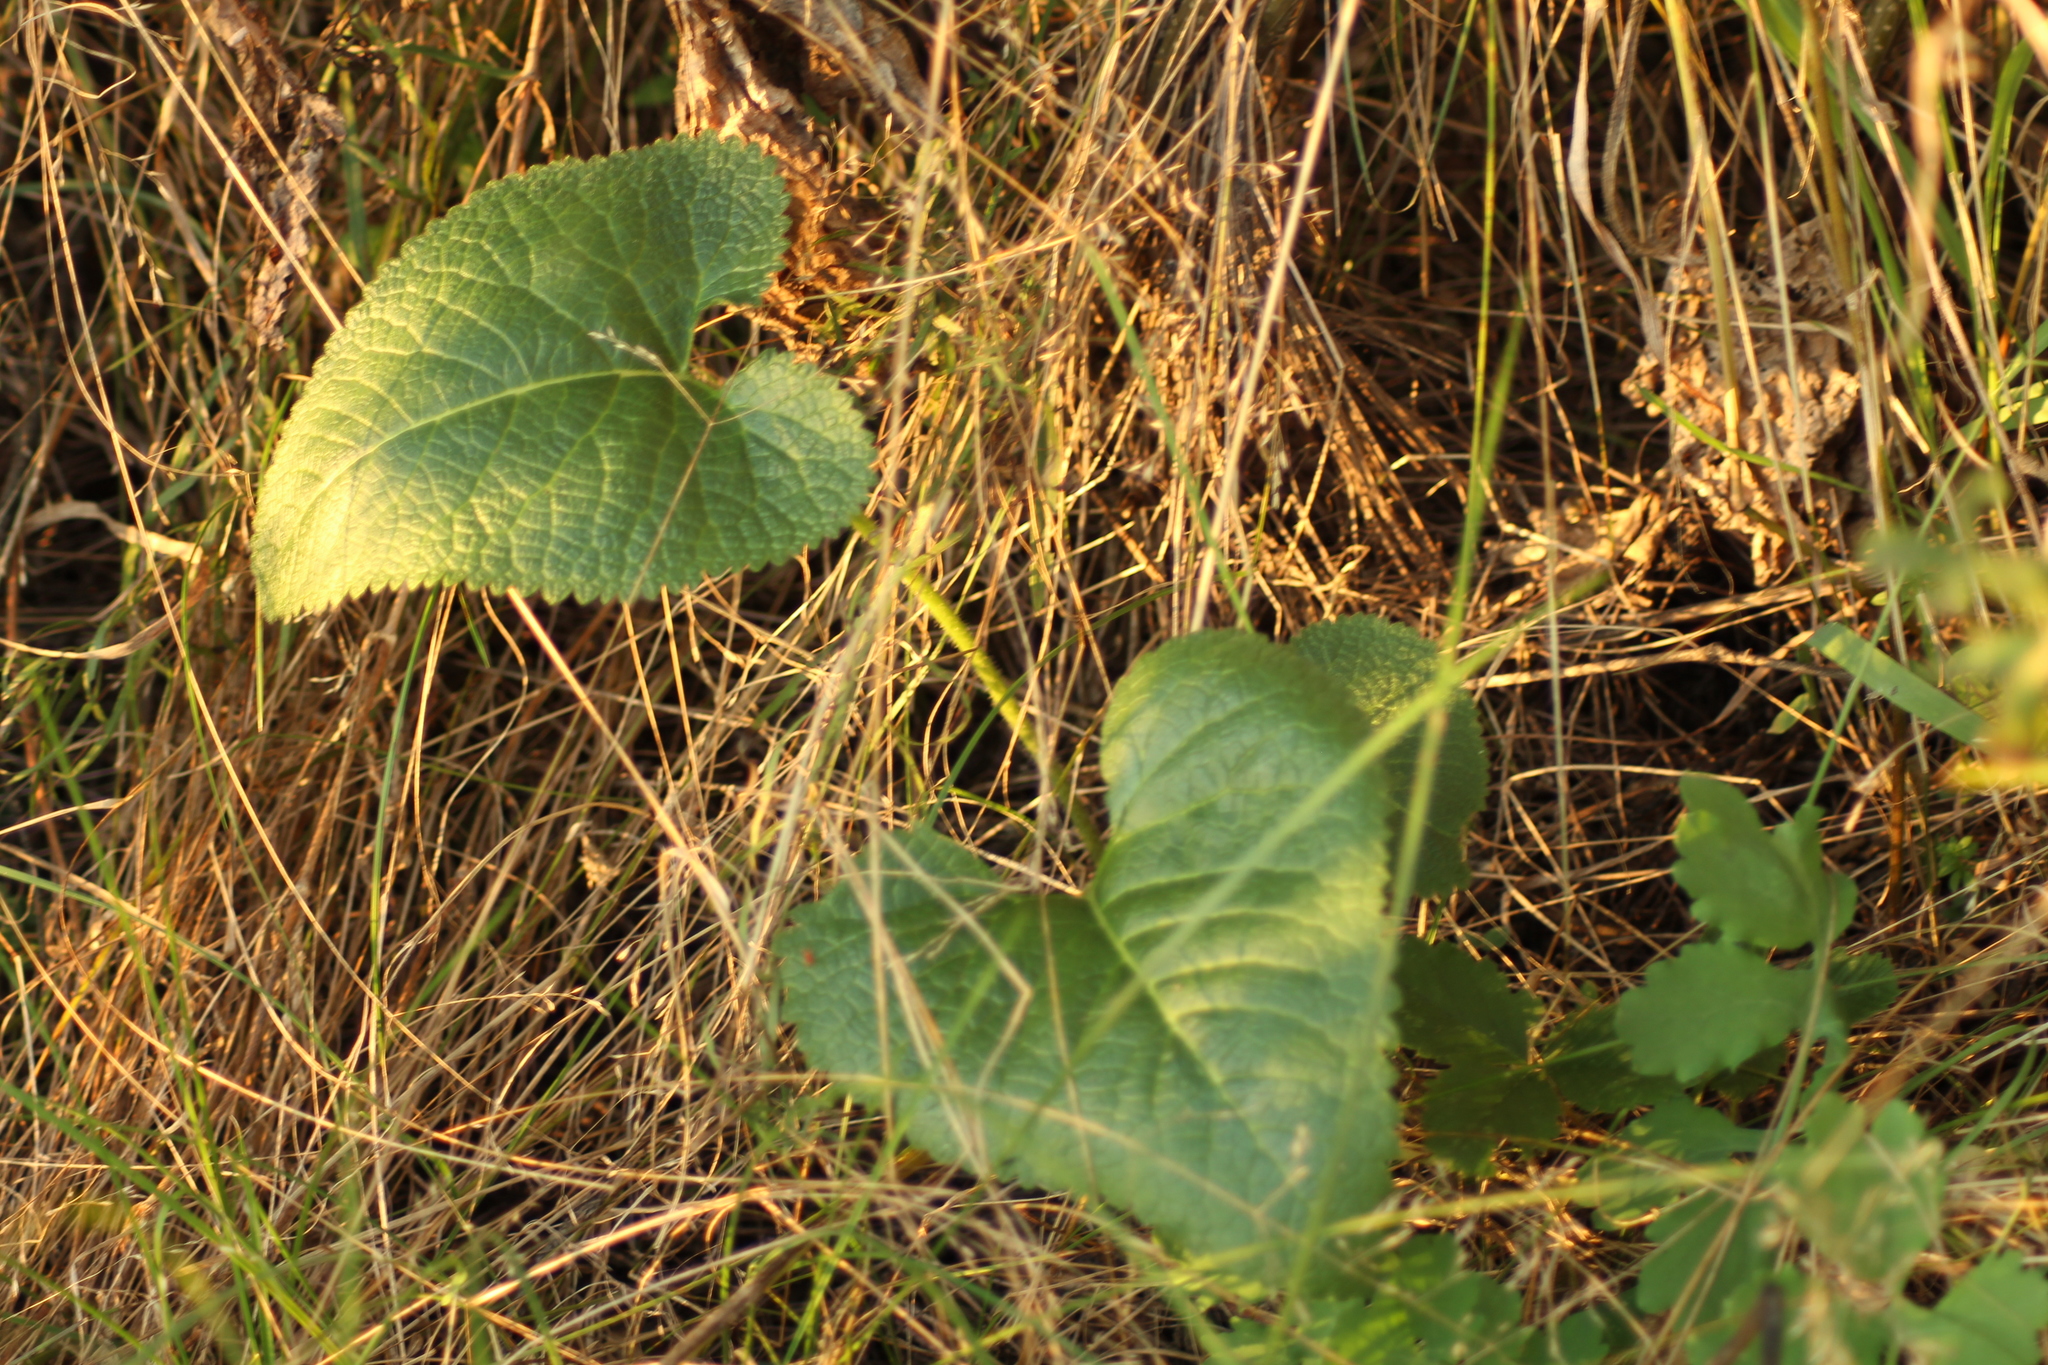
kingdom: Plantae
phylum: Tracheophyta
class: Magnoliopsida
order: Lamiales
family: Lamiaceae
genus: Phlomoides
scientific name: Phlomoides tuberosa
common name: Tuberous jerusalem sage
